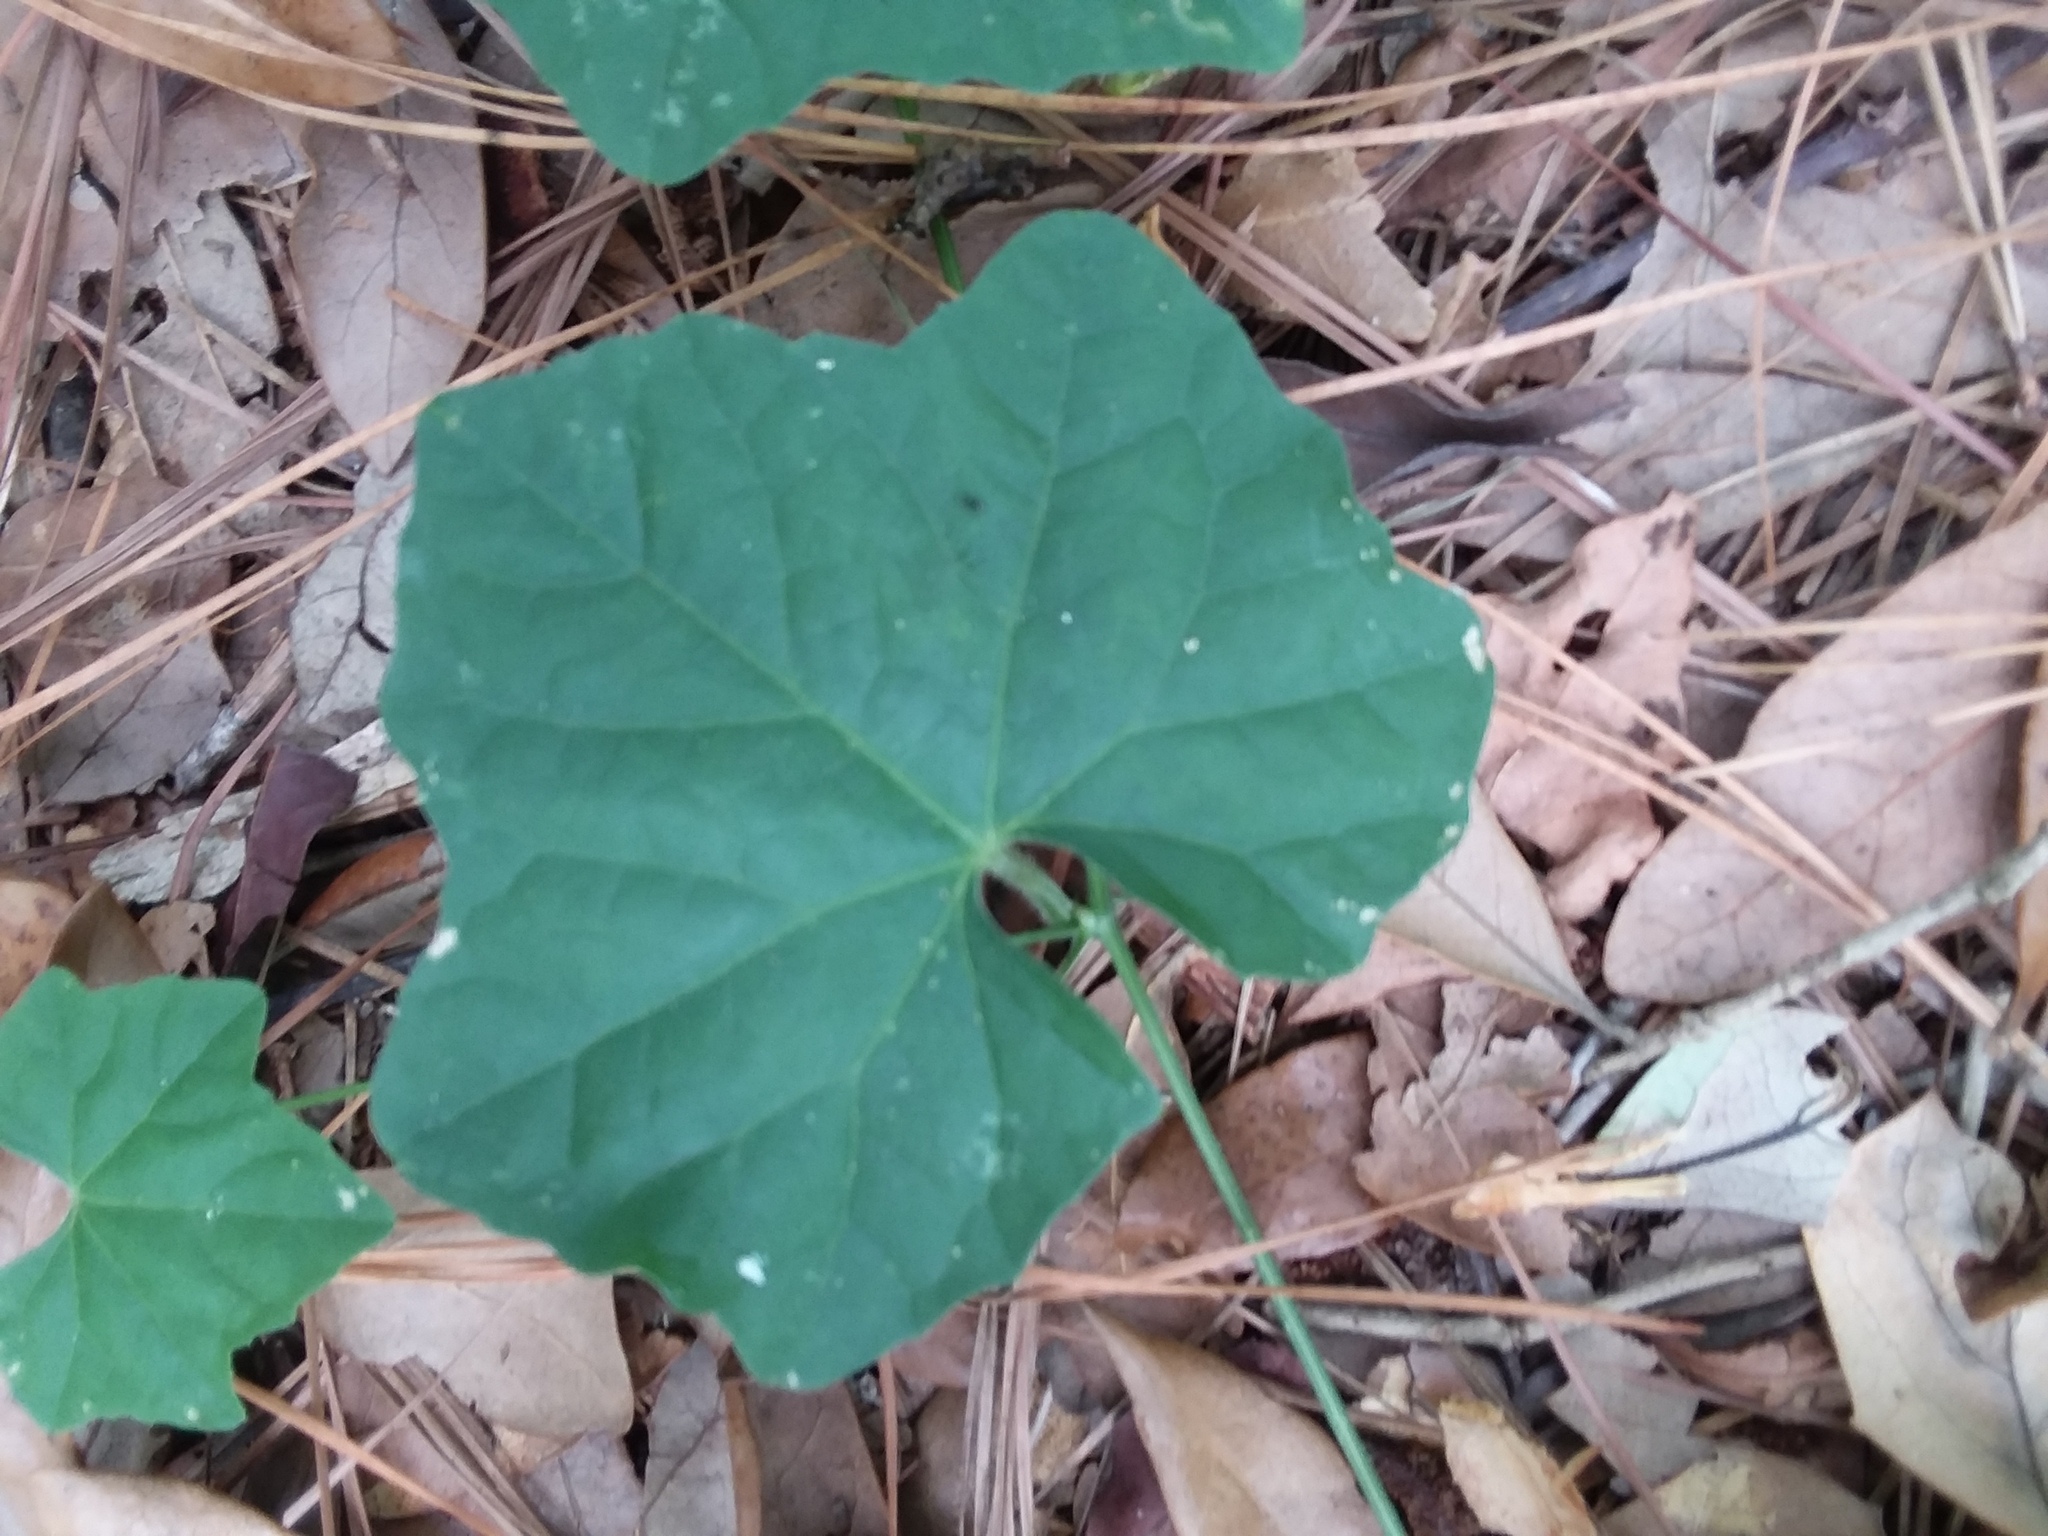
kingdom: Plantae
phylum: Tracheophyta
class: Magnoliopsida
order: Cucurbitales
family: Cucurbitaceae
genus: Melothria
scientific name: Melothria pendula
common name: Creeping-cucumber
